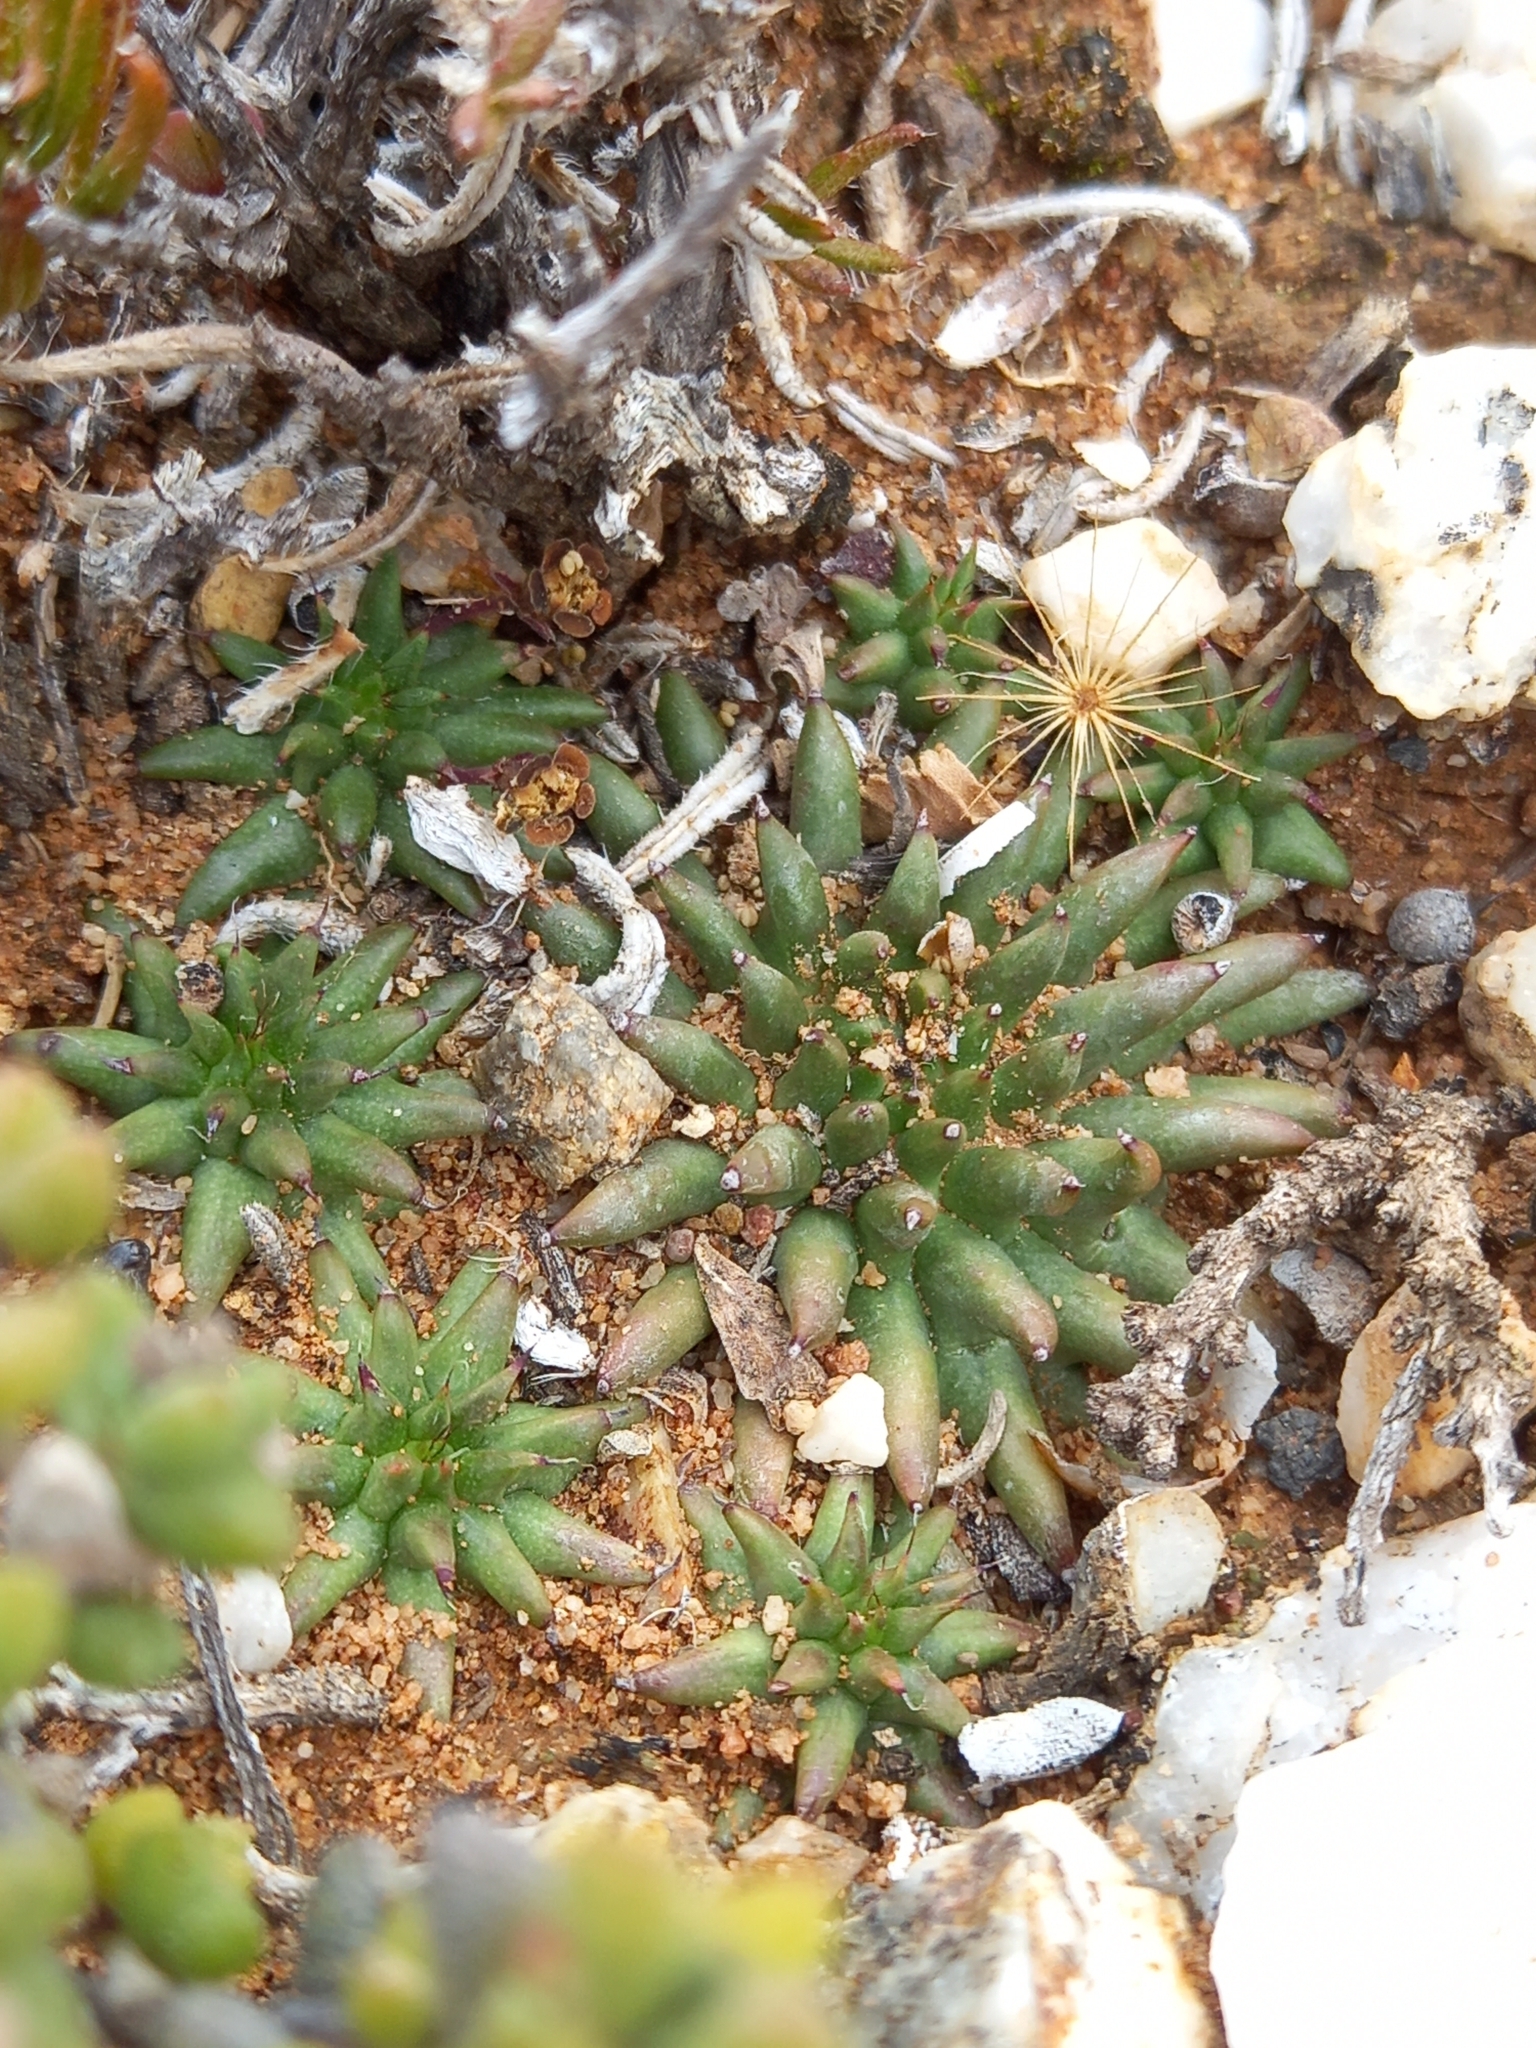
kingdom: Plantae
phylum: Tracheophyta
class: Magnoliopsida
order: Malpighiales
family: Euphorbiaceae
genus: Euphorbia
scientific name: Euphorbia susannae
